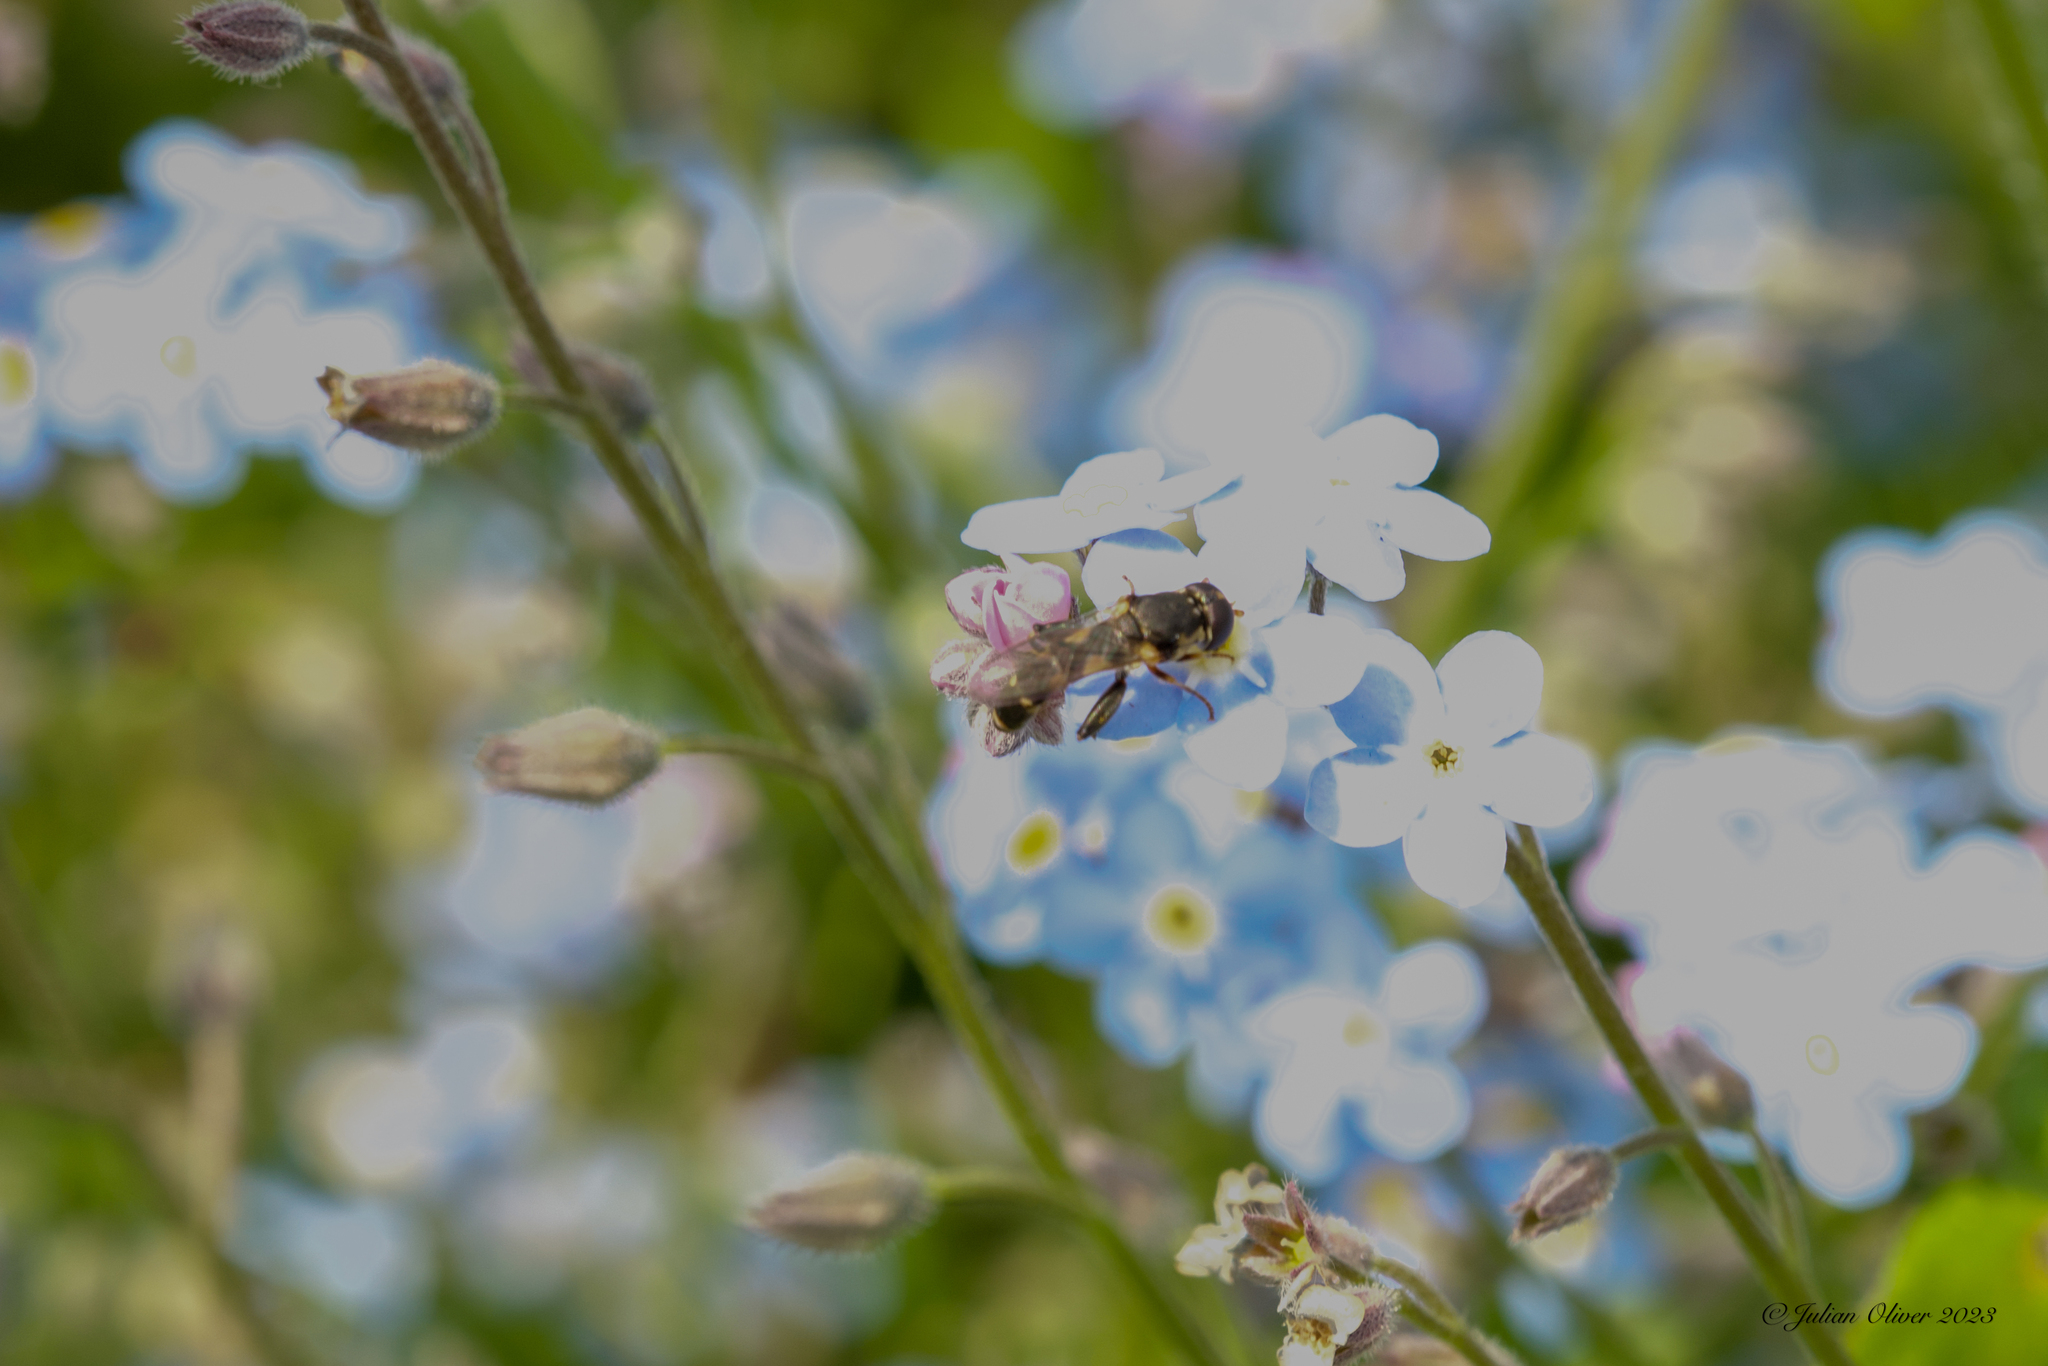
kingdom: Animalia
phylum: Arthropoda
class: Insecta
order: Diptera
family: Syrphidae
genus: Syritta
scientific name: Syritta pipiens
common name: Hover fly
